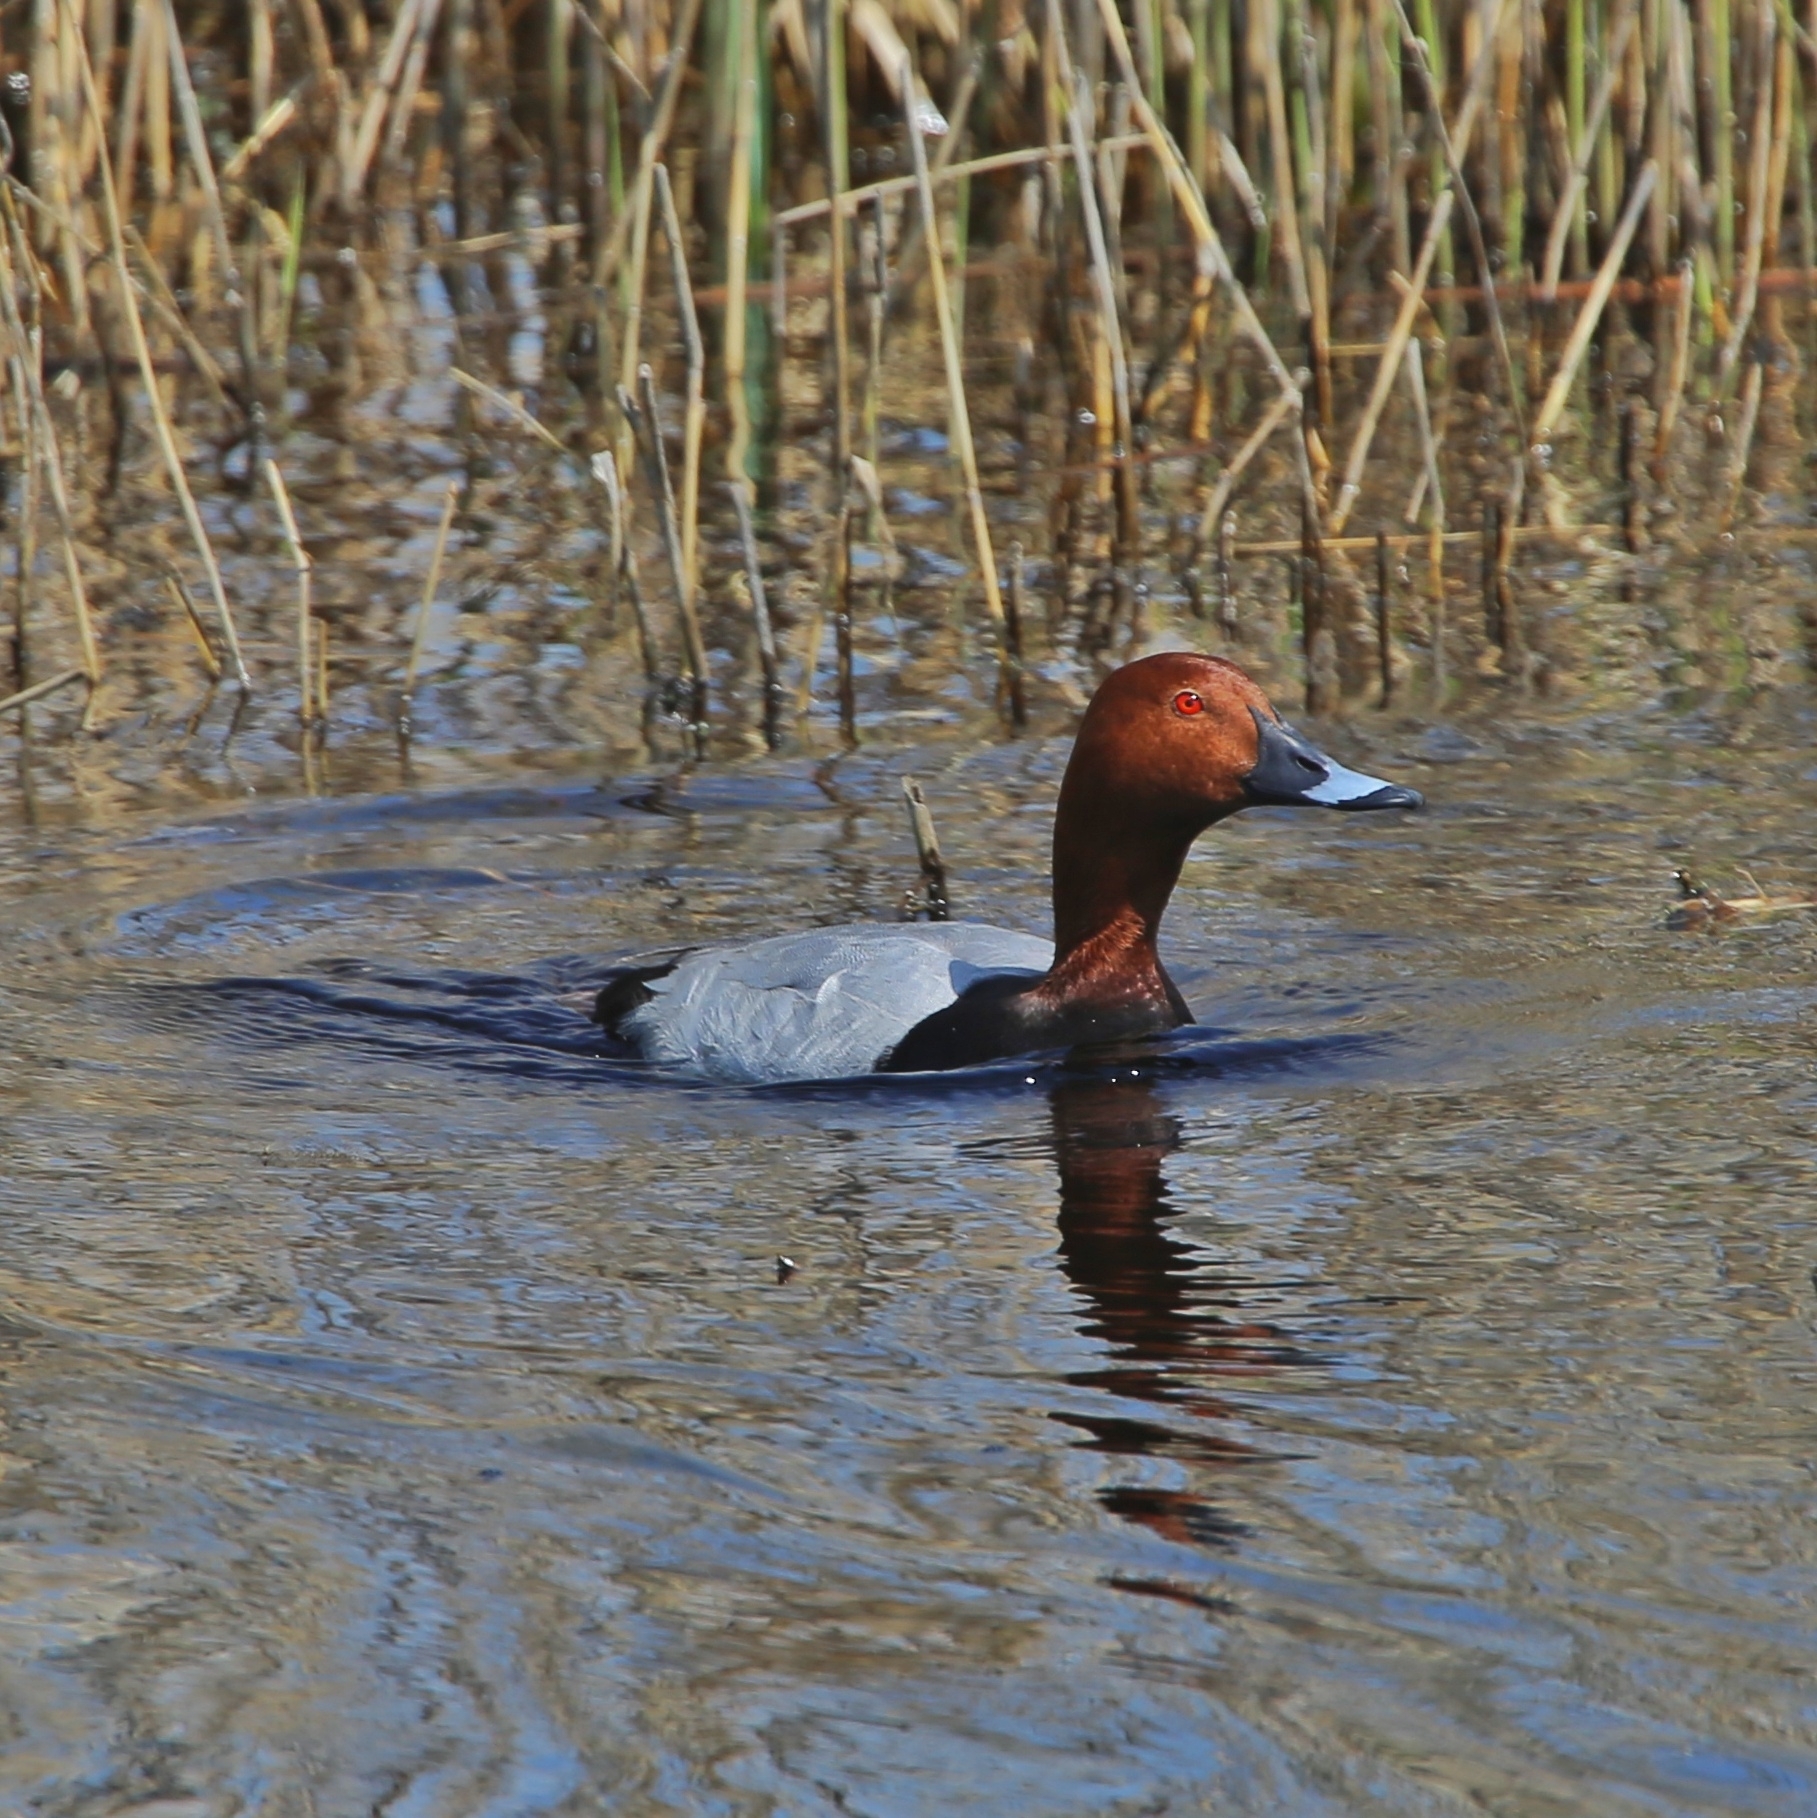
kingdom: Animalia
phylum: Chordata
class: Aves
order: Anseriformes
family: Anatidae
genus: Aythya
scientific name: Aythya ferina
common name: Common pochard
